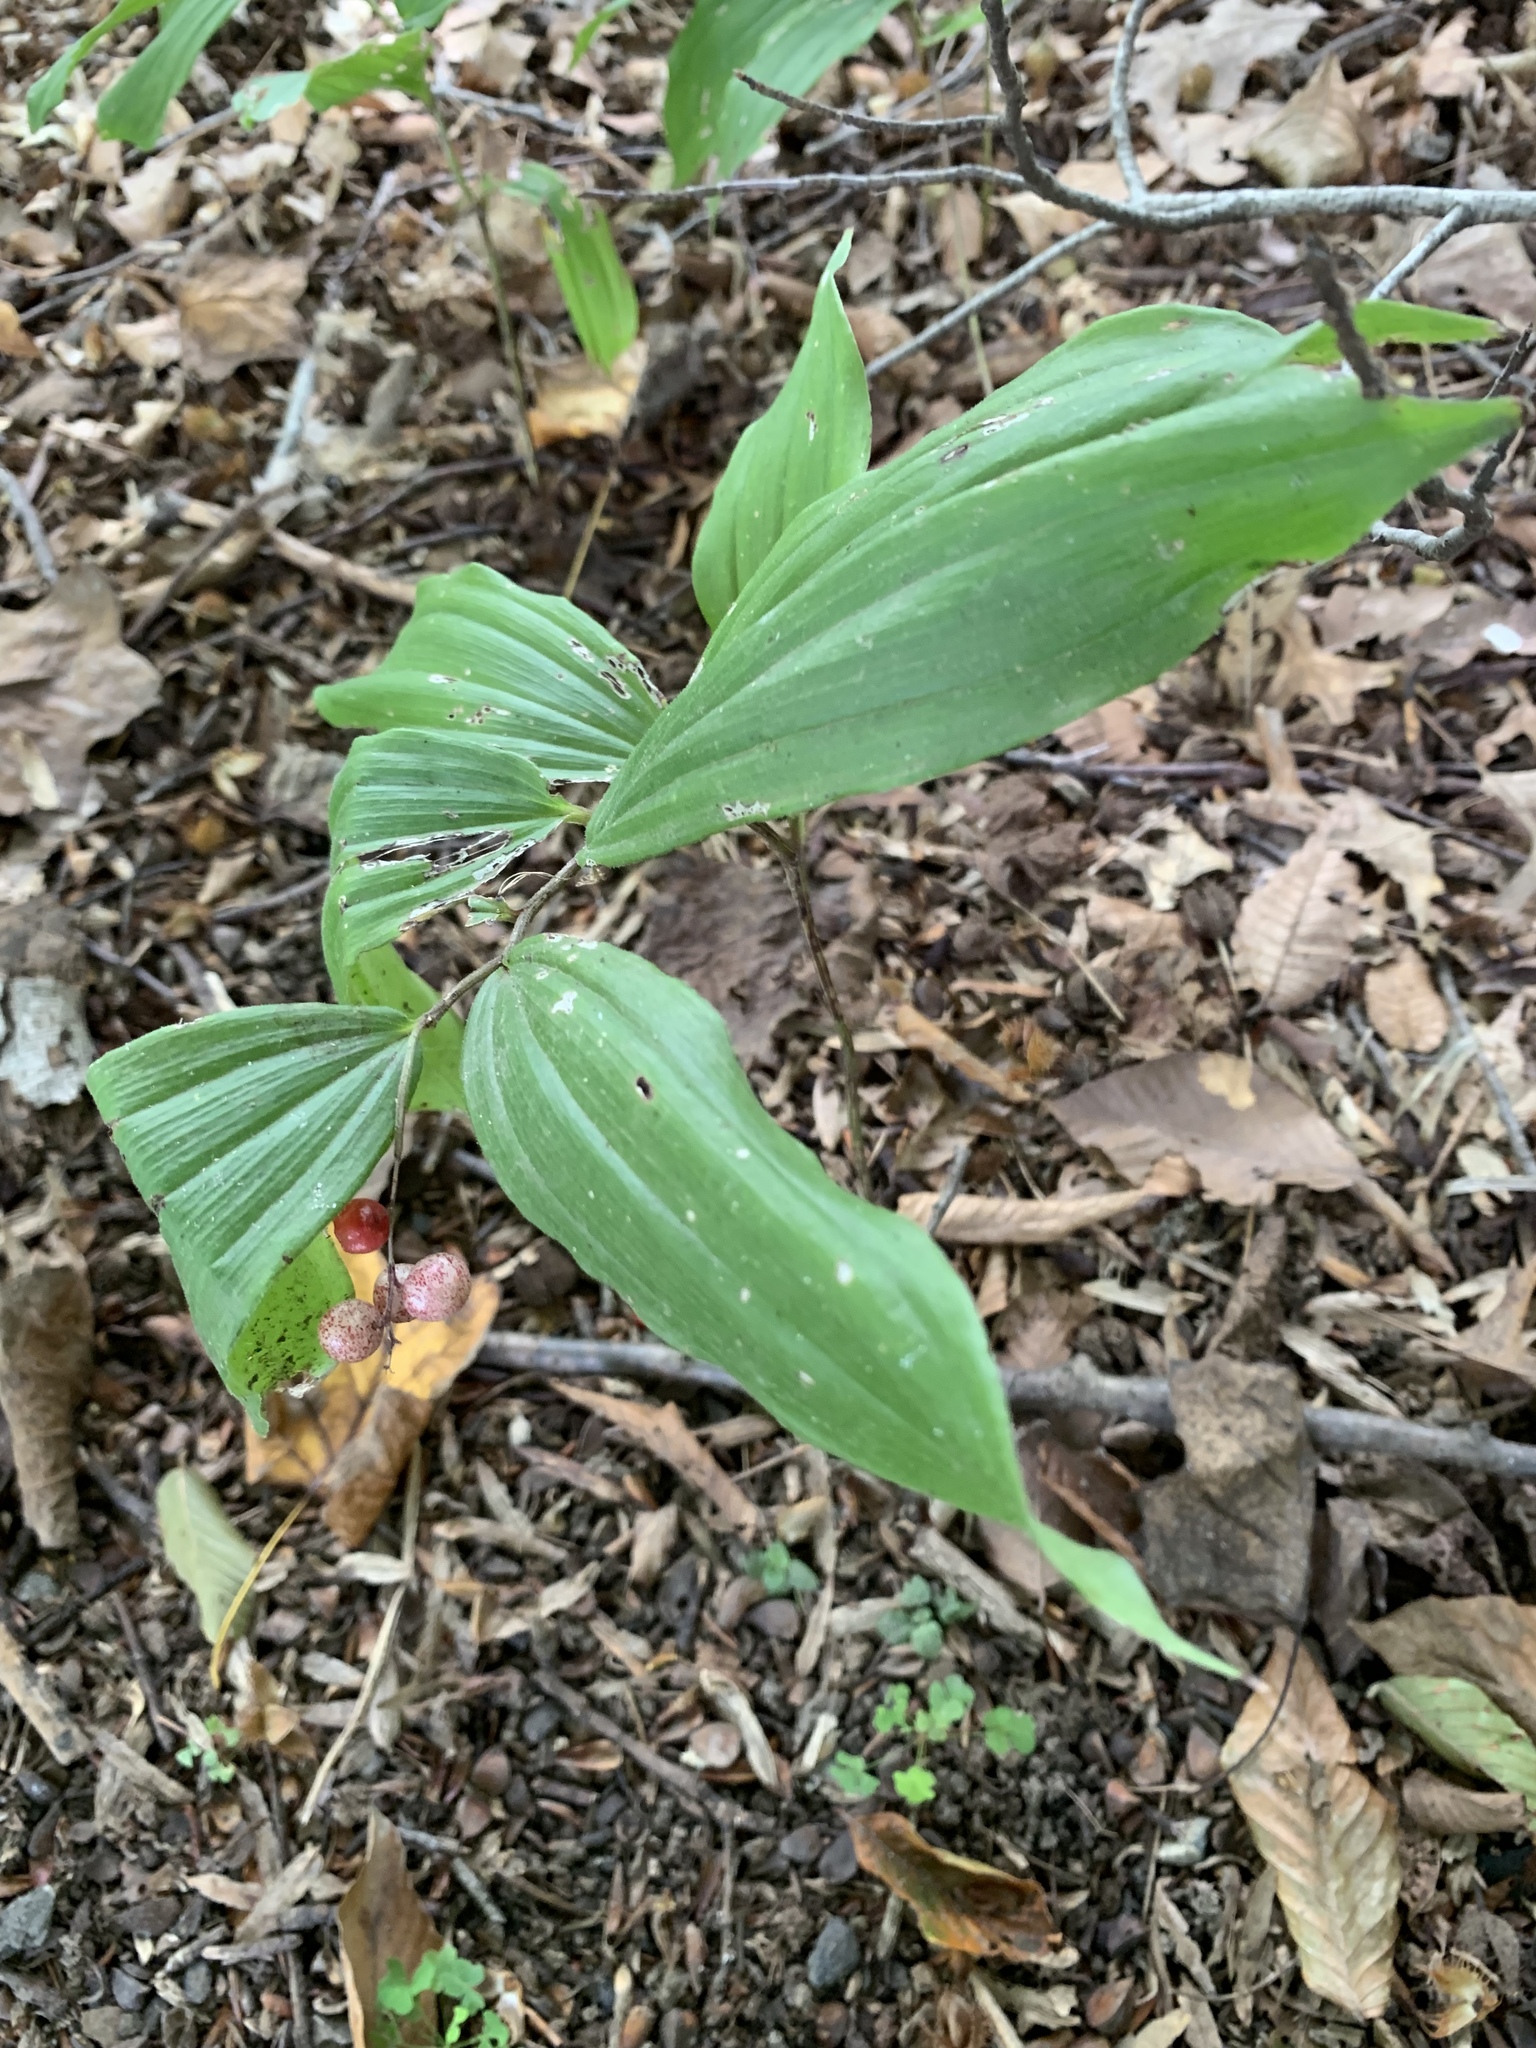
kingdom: Plantae
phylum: Tracheophyta
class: Liliopsida
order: Asparagales
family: Asparagaceae
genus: Maianthemum
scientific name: Maianthemum racemosum
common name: False spikenard
